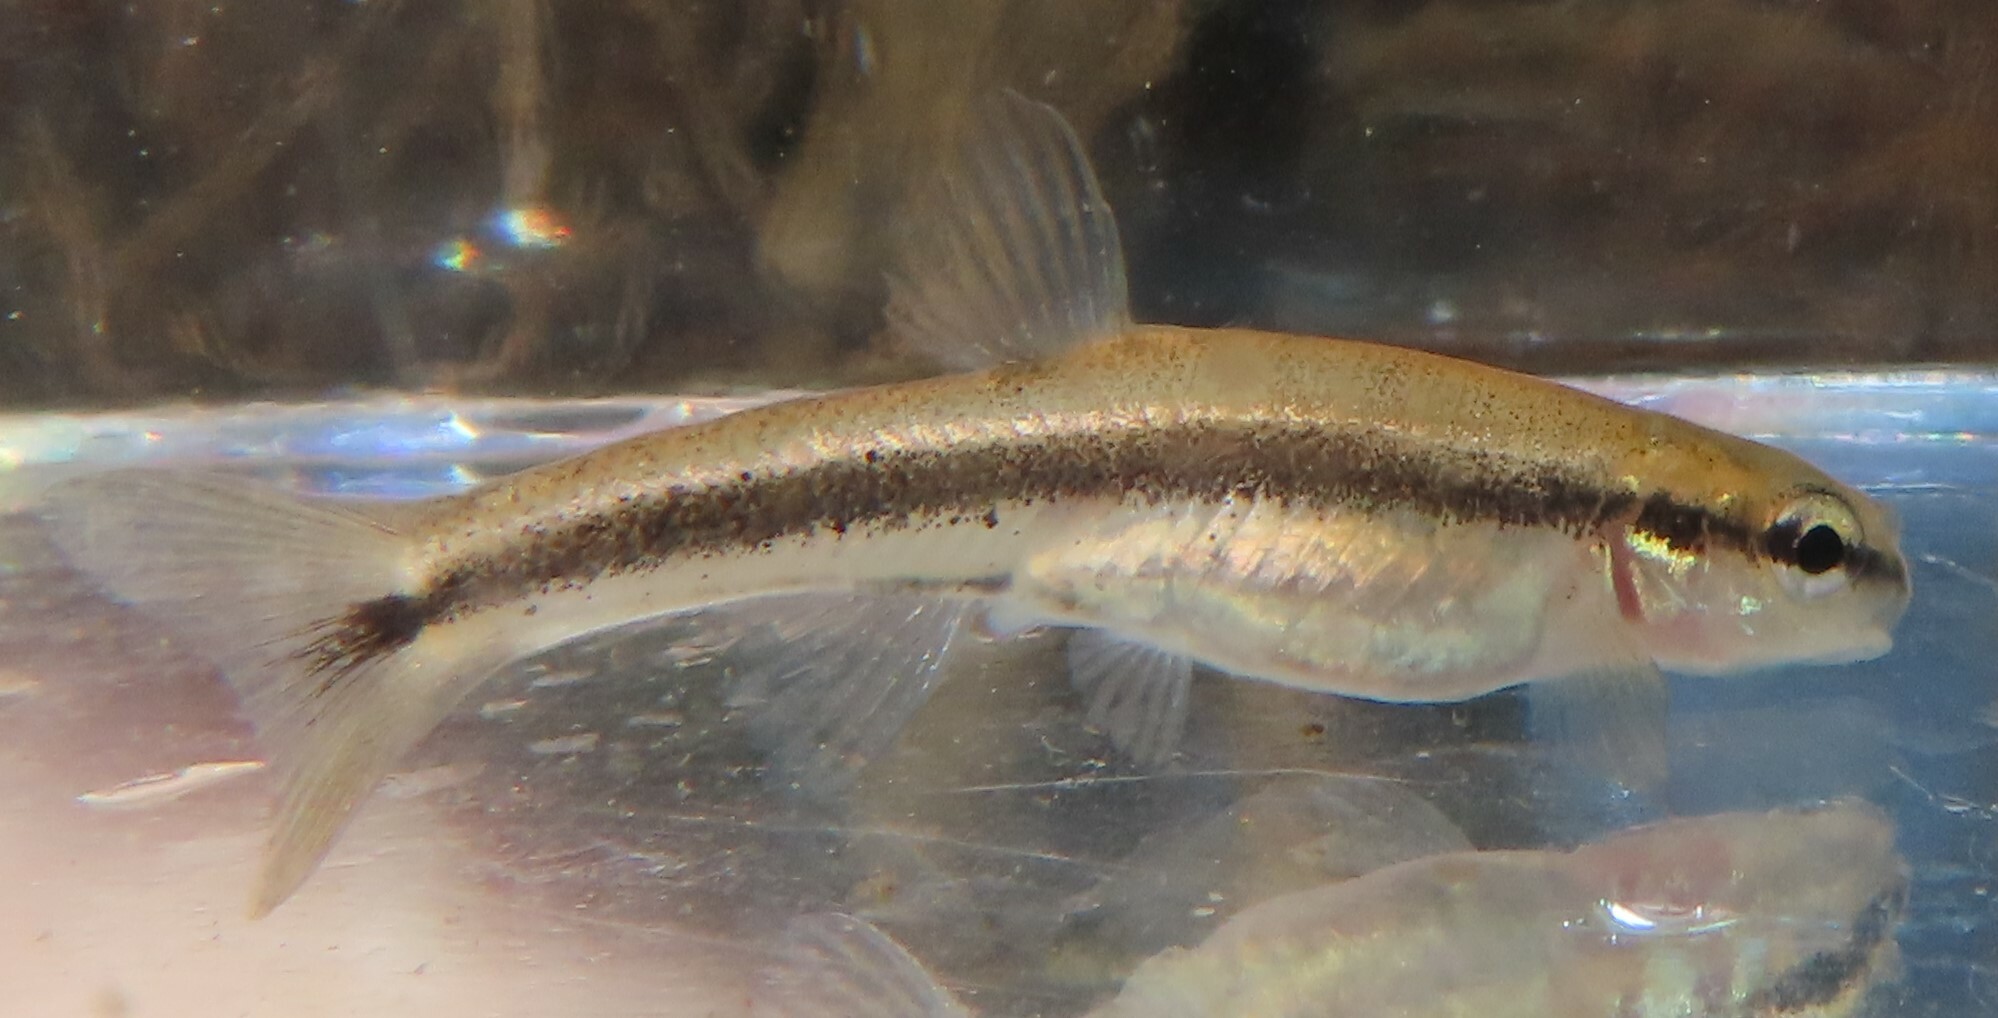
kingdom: Animalia
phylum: Chordata
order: Cypriniformes
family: Cyprinidae
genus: Rhinichthys
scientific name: Rhinichthys atratulus
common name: Eastern blacknose dace
